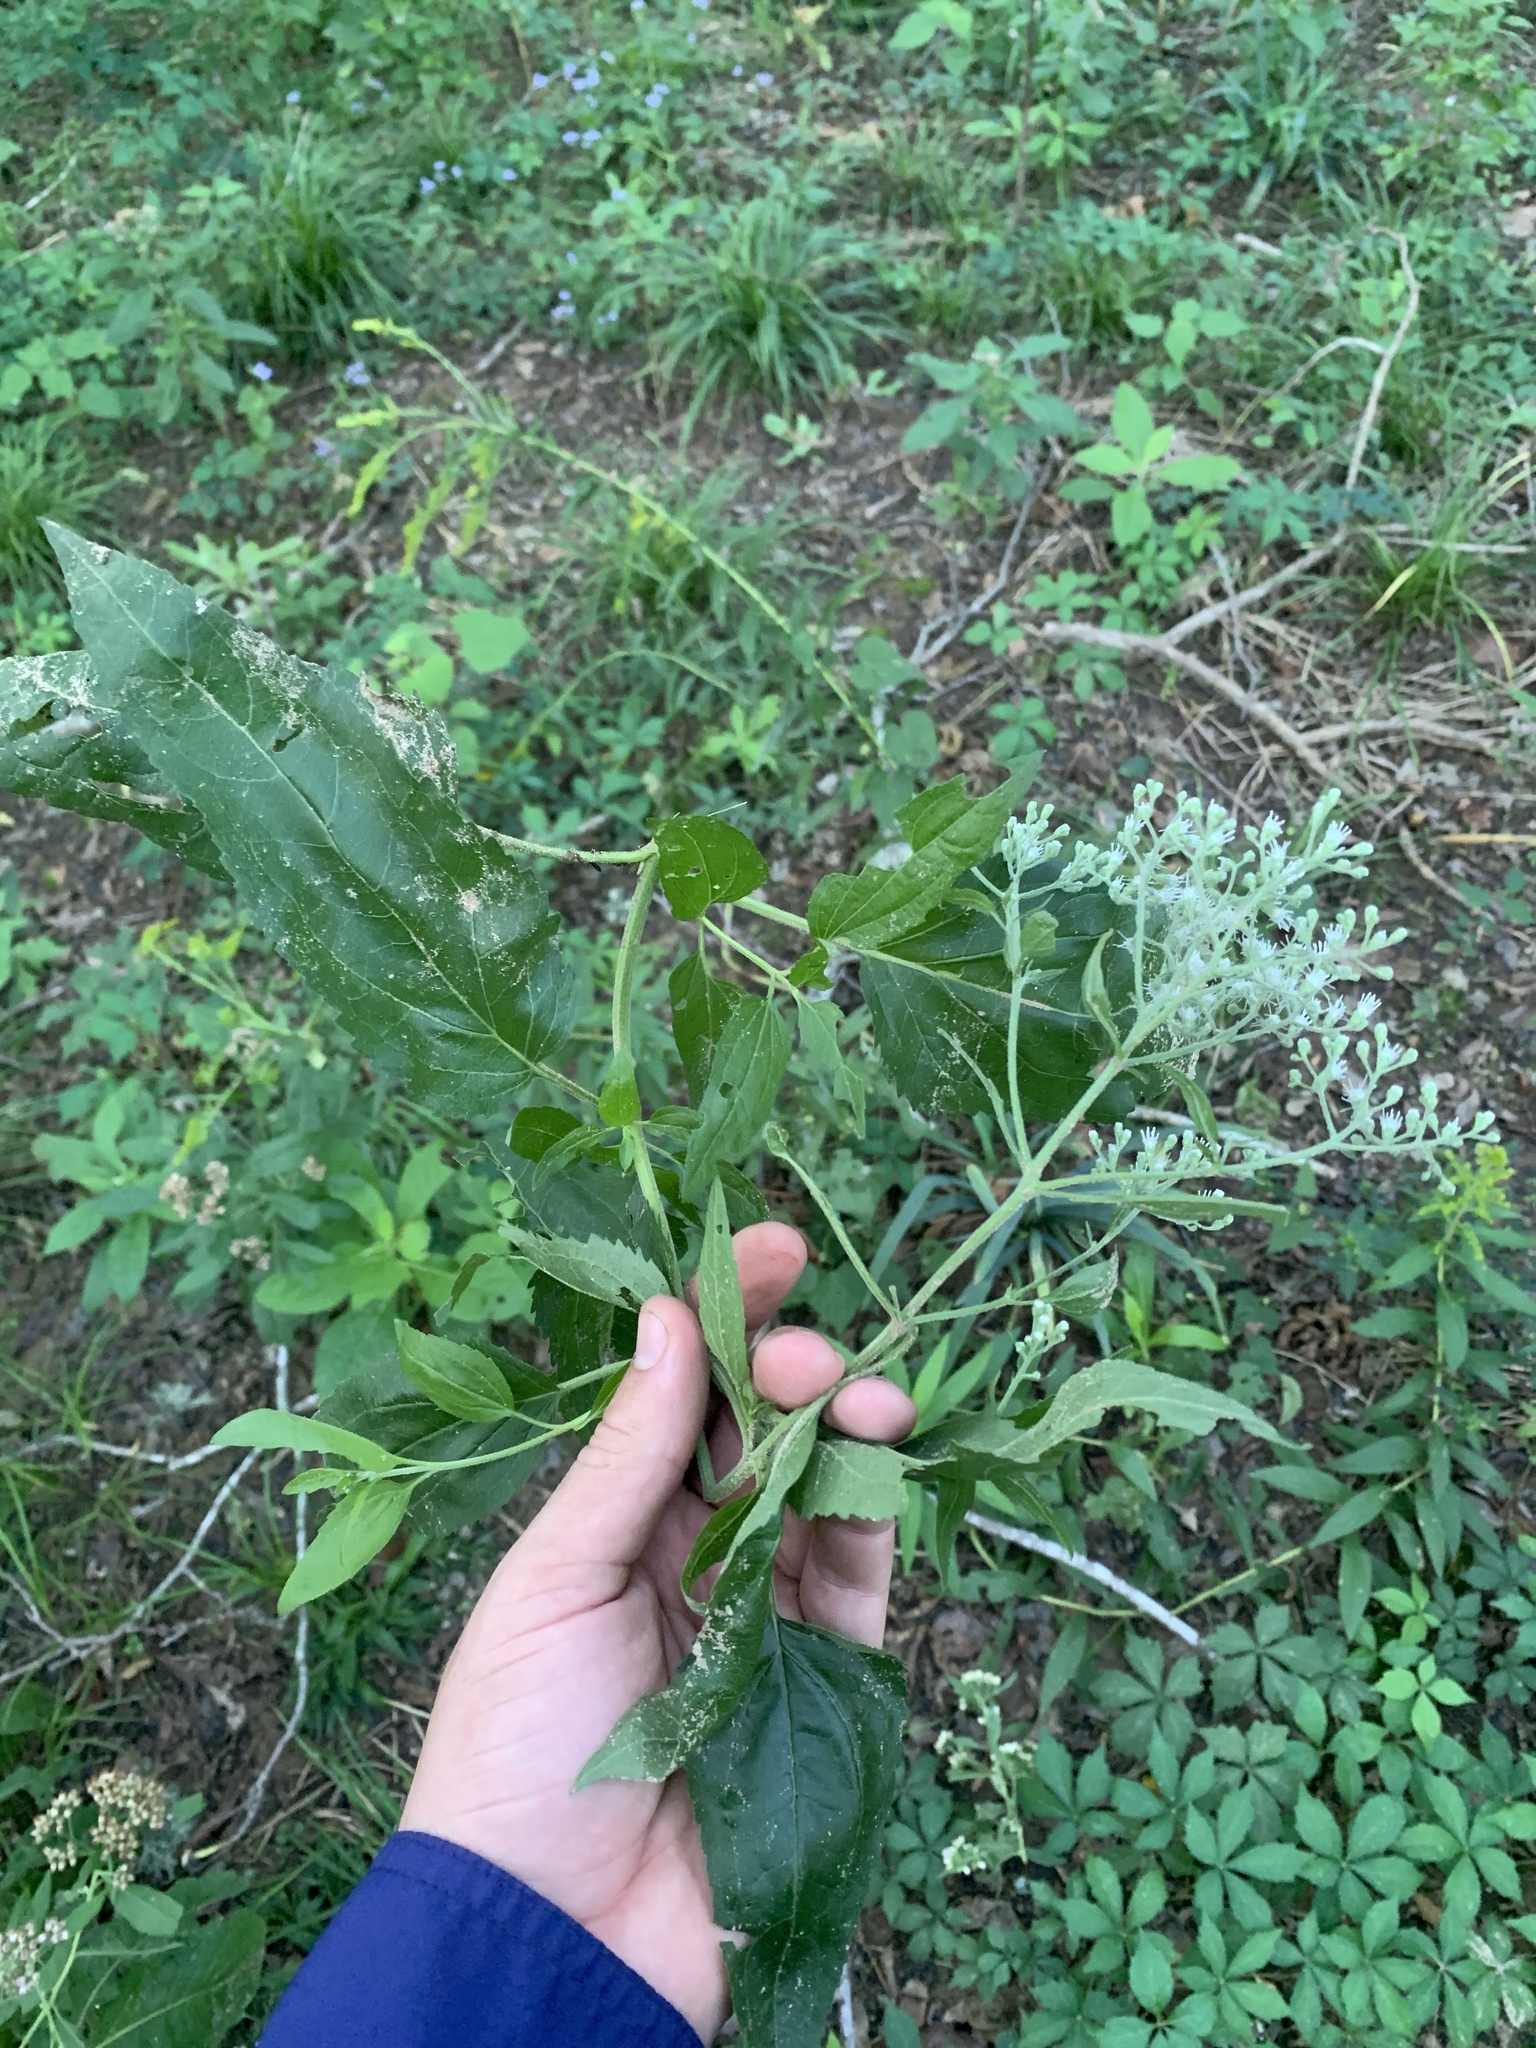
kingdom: Plantae
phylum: Tracheophyta
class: Magnoliopsida
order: Asterales
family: Asteraceae
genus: Eupatorium
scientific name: Eupatorium serotinum
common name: Late boneset
